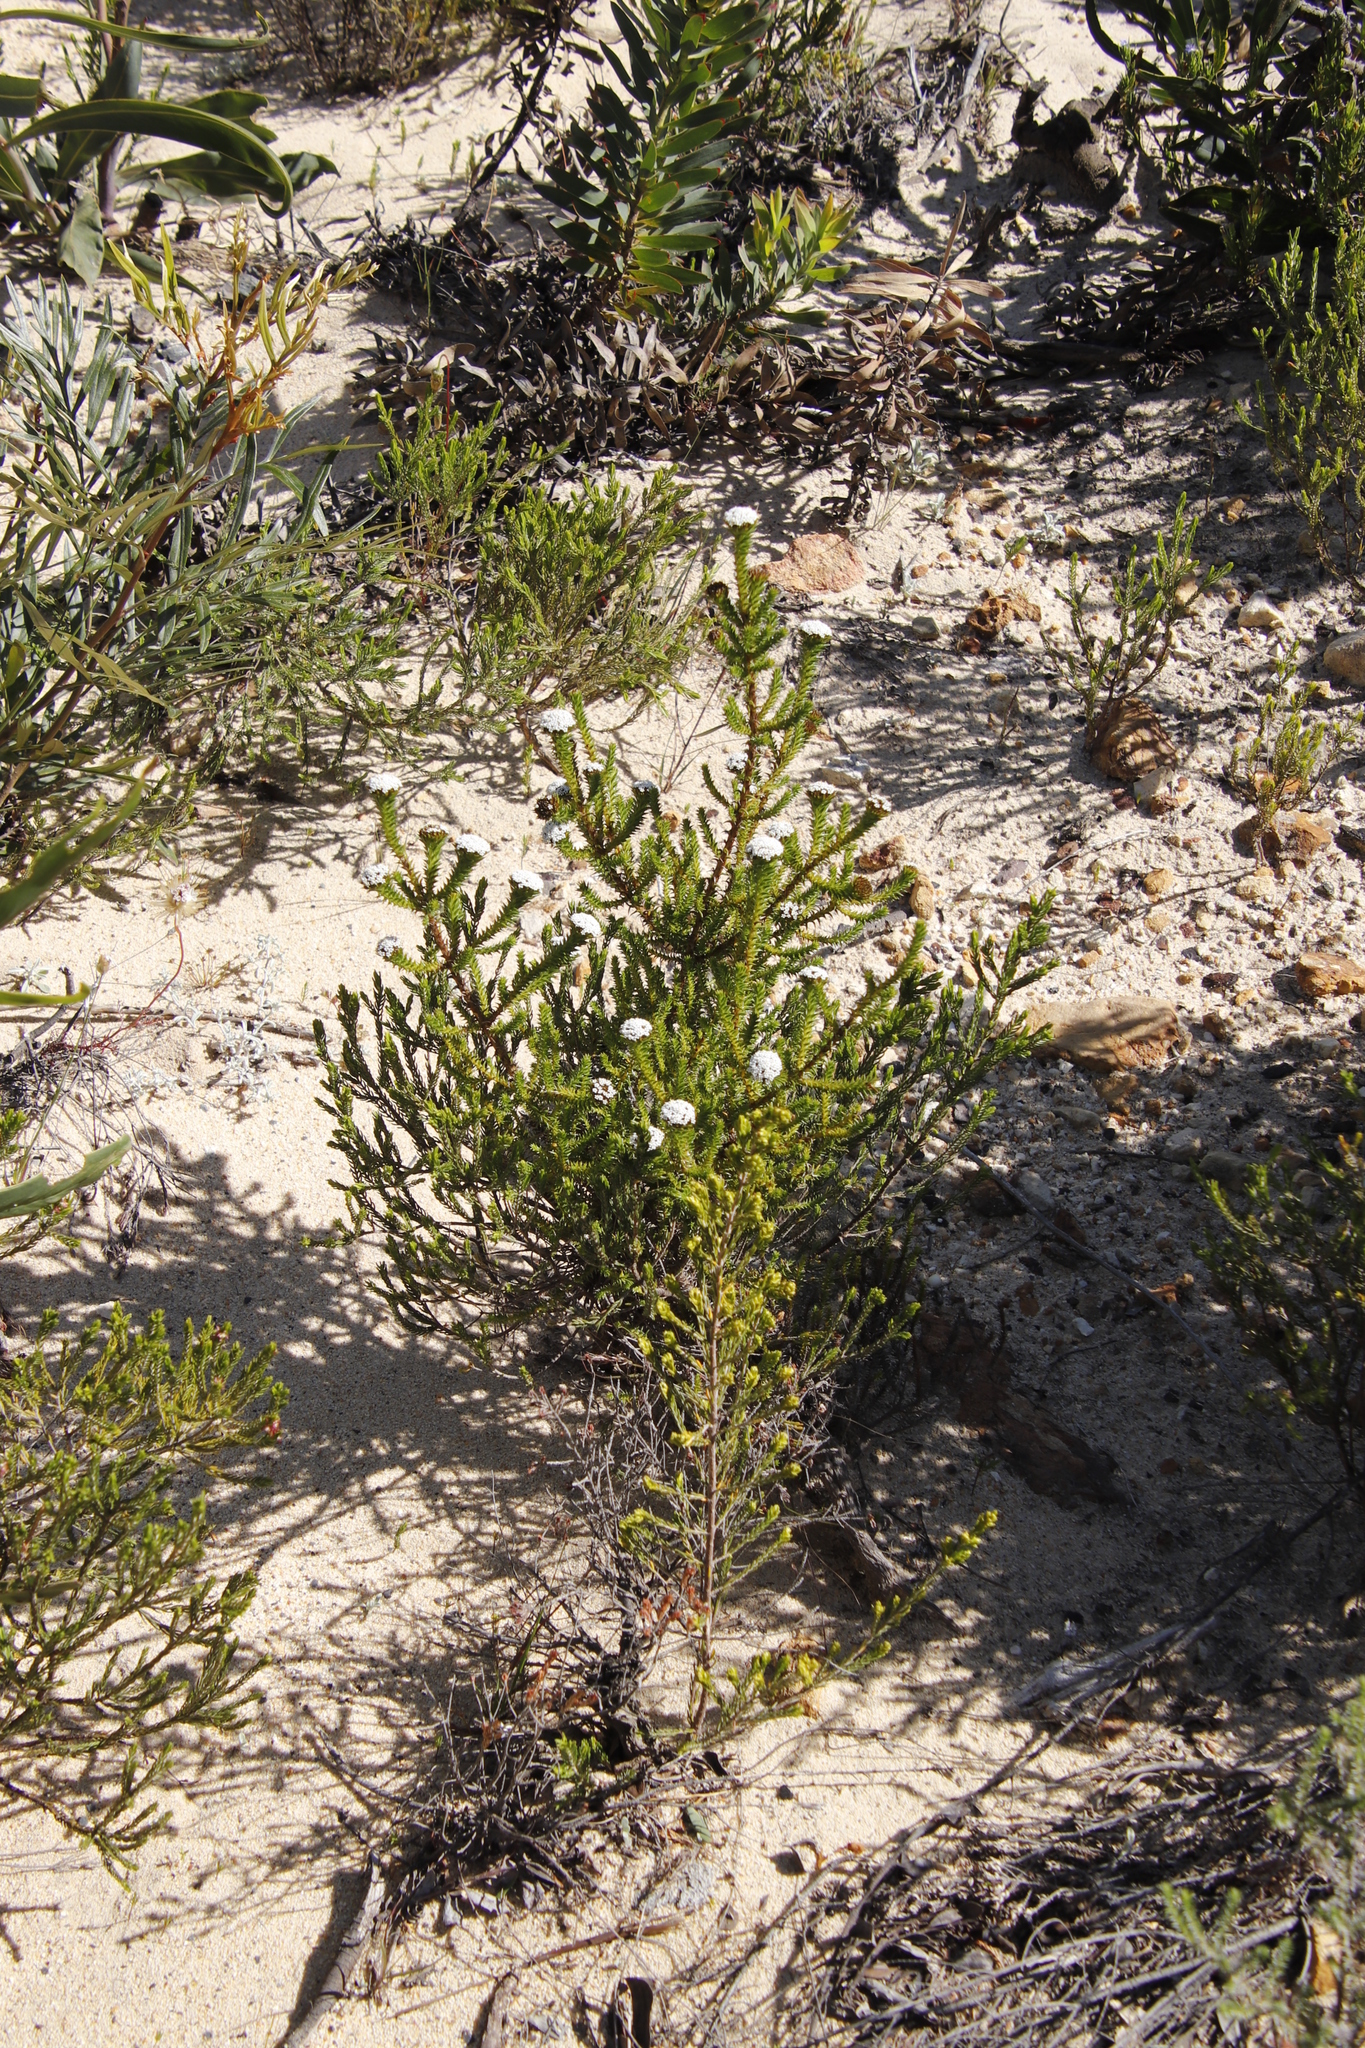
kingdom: Plantae
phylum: Tracheophyta
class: Magnoliopsida
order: Asterales
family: Asteraceae
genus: Stoebe
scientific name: Stoebe aethiopica
